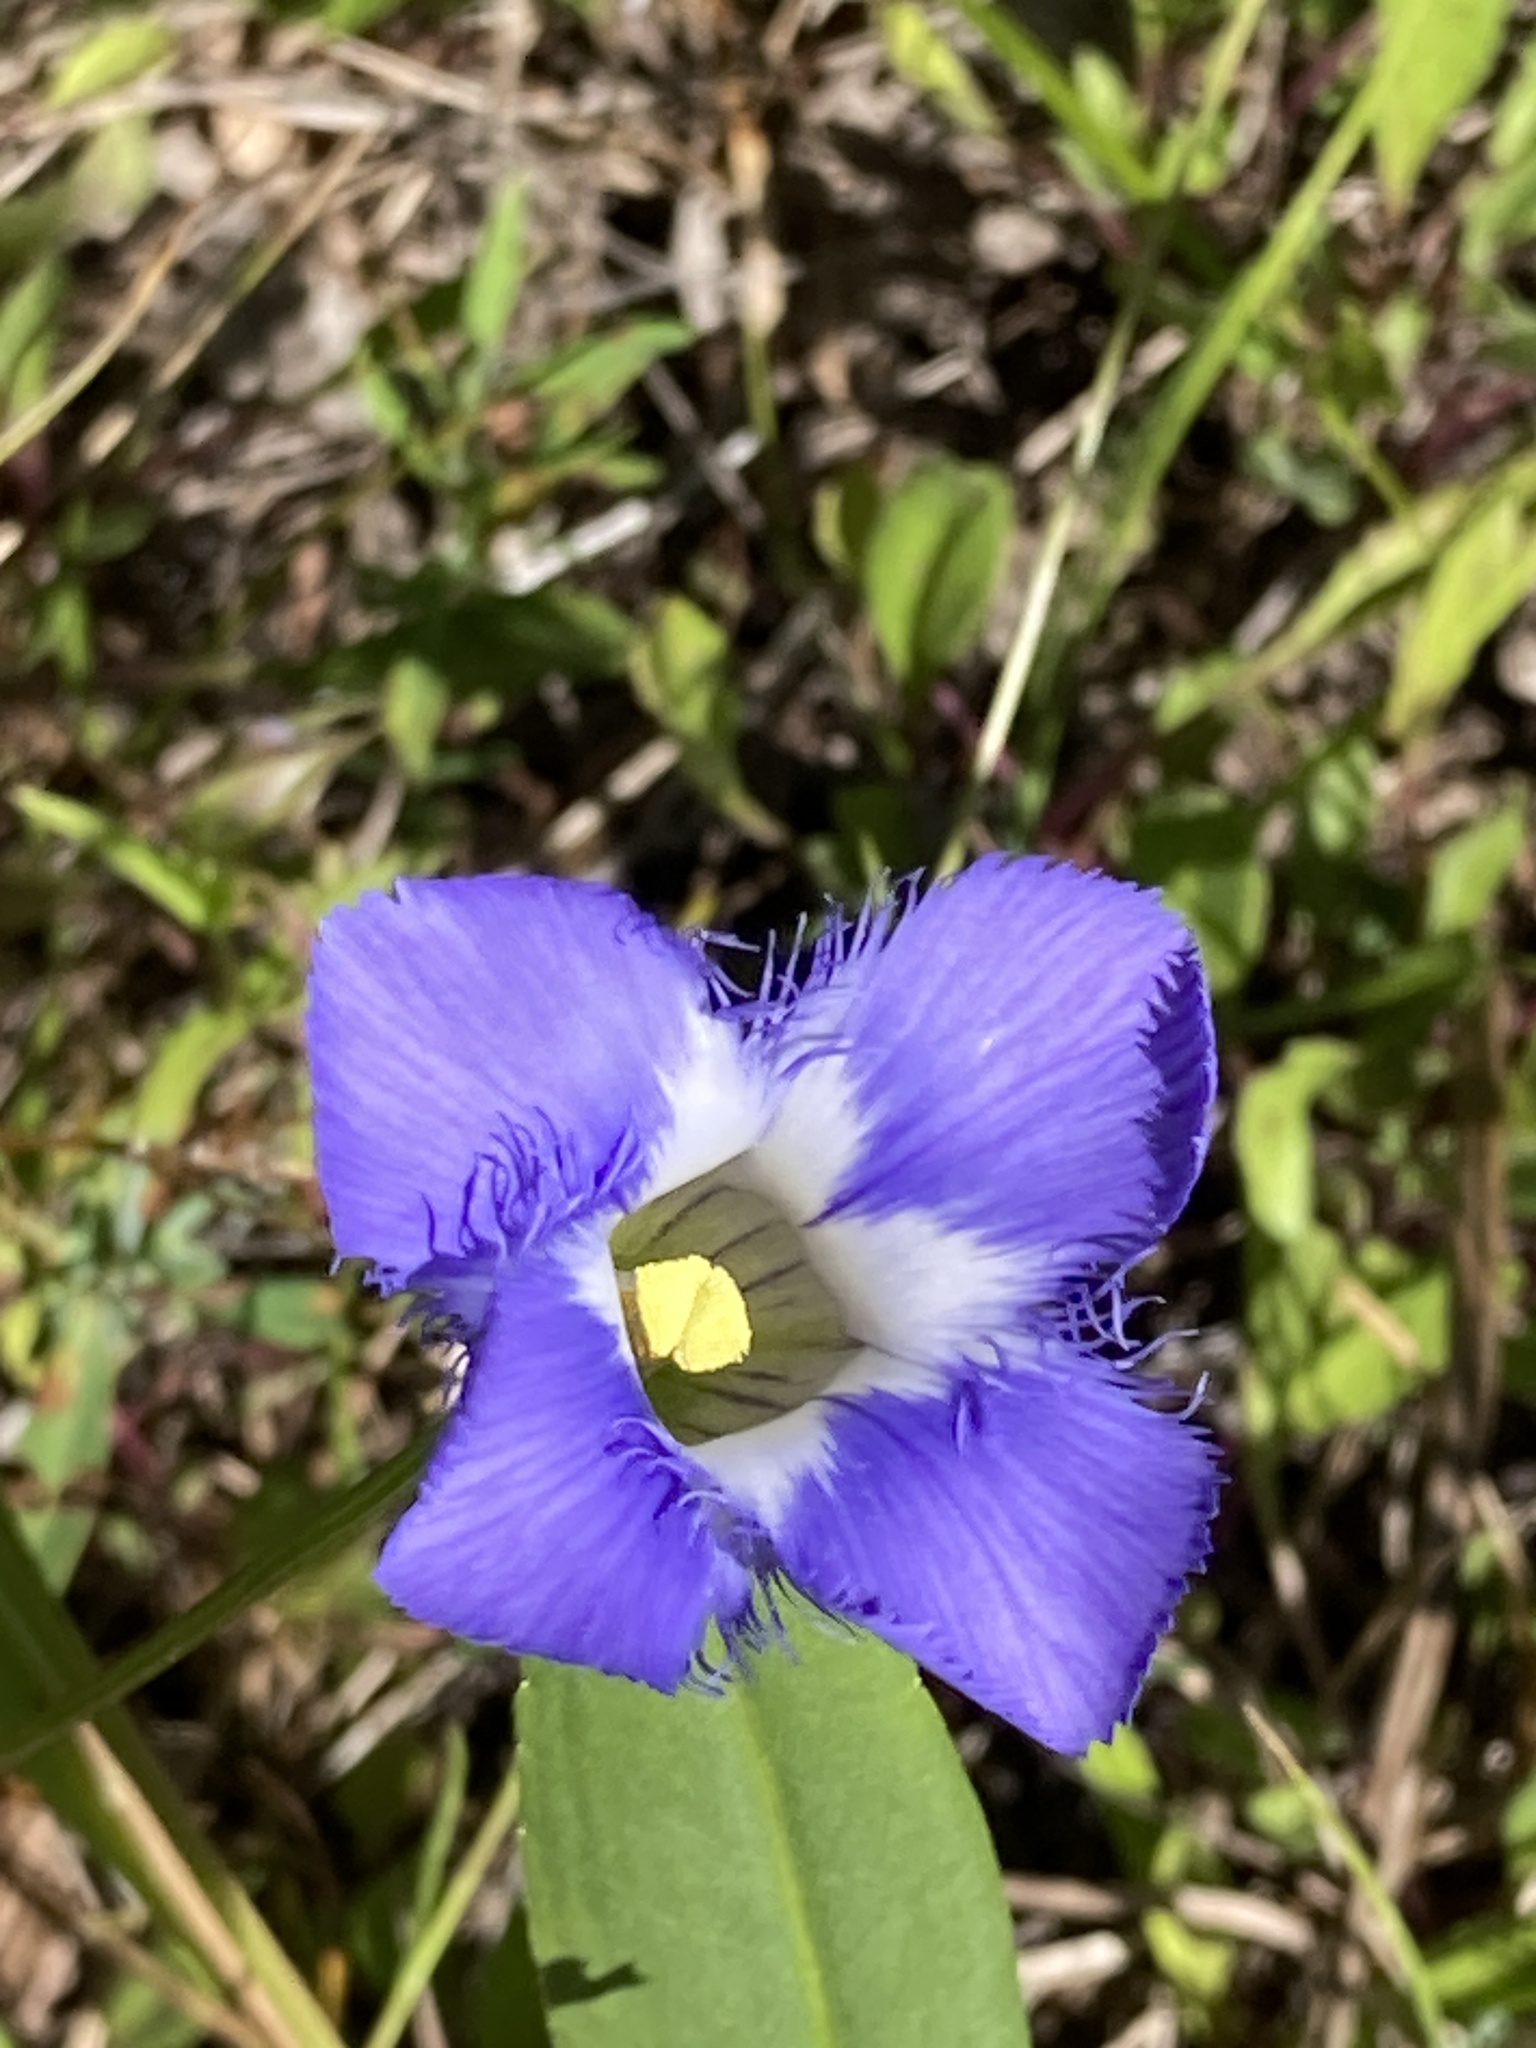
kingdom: Plantae
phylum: Tracheophyta
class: Magnoliopsida
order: Gentianales
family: Gentianaceae
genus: Gentianopsis
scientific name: Gentianopsis virgata
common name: Lesser fringed-gentian
